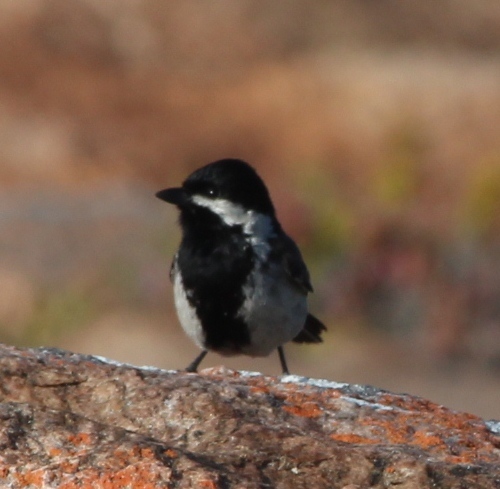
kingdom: Animalia
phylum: Chordata
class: Aves
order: Passeriformes
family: Paridae
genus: Parus
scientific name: Parus afer
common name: Grey tit
